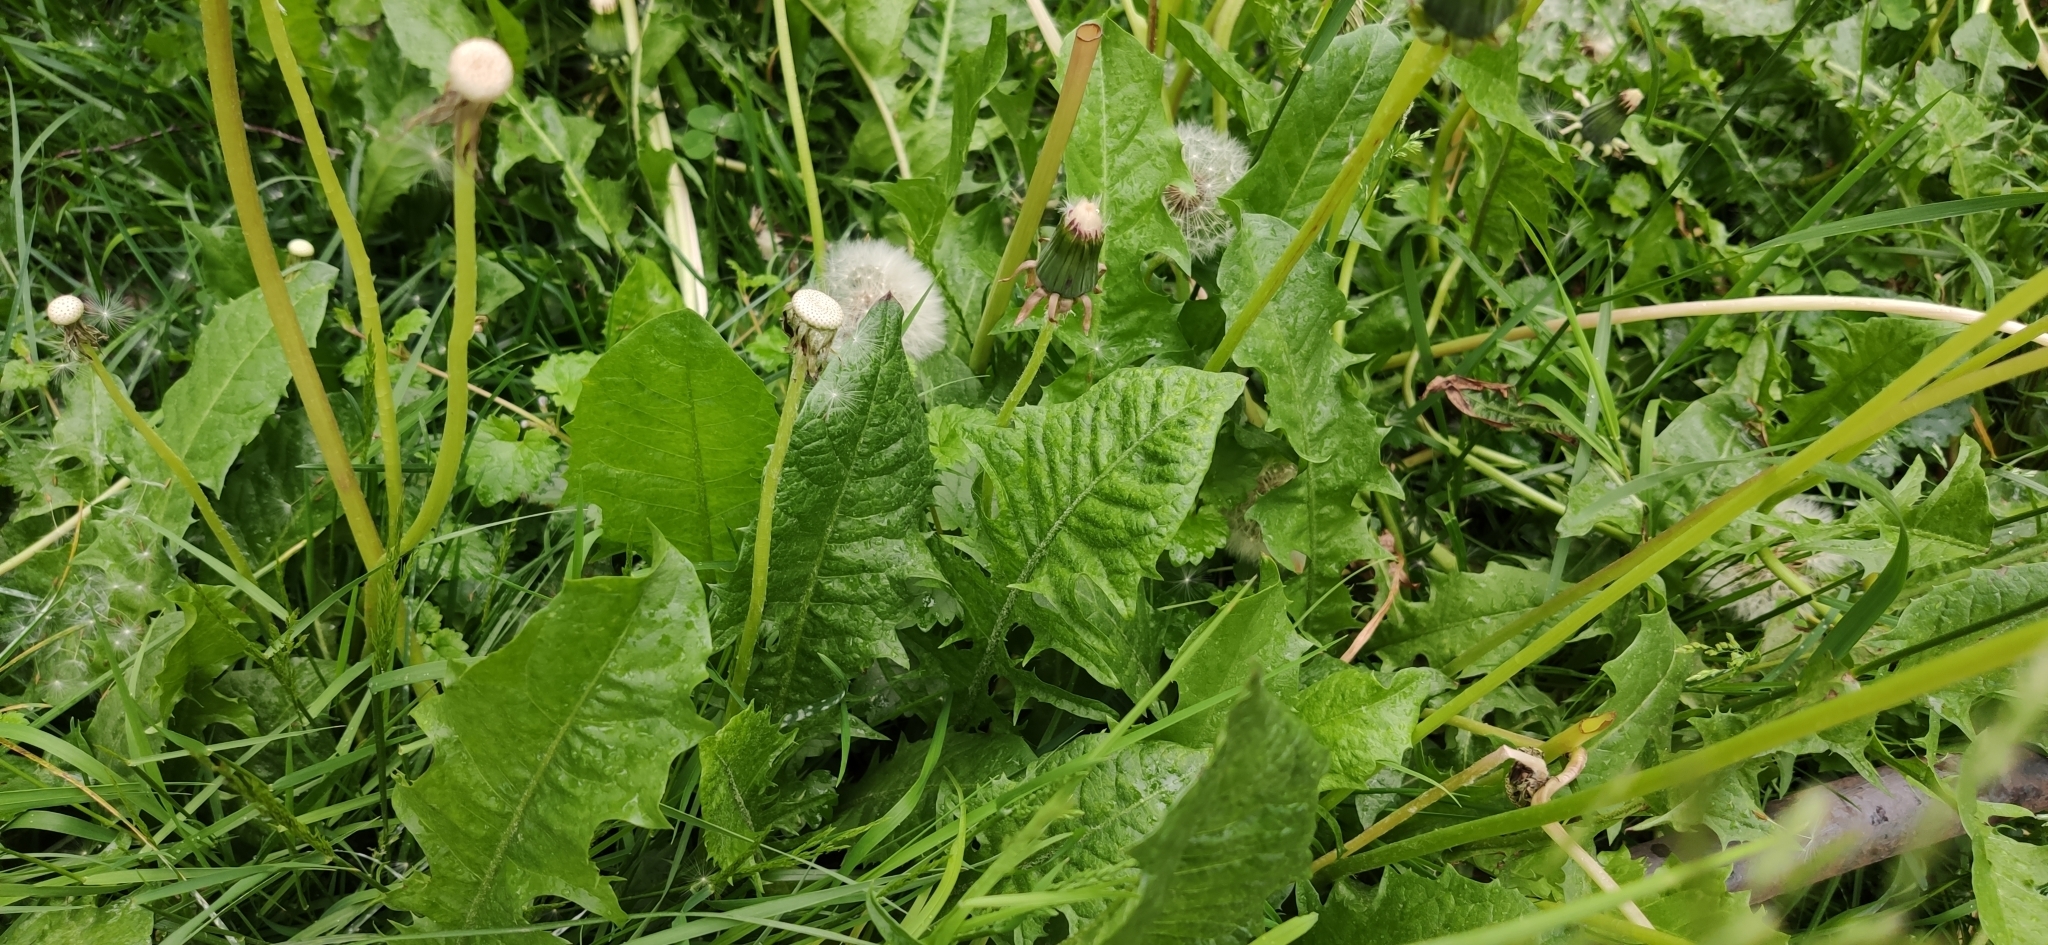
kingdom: Plantae
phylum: Tracheophyta
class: Magnoliopsida
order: Asterales
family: Asteraceae
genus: Taraxacum
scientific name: Taraxacum officinale
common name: Common dandelion
